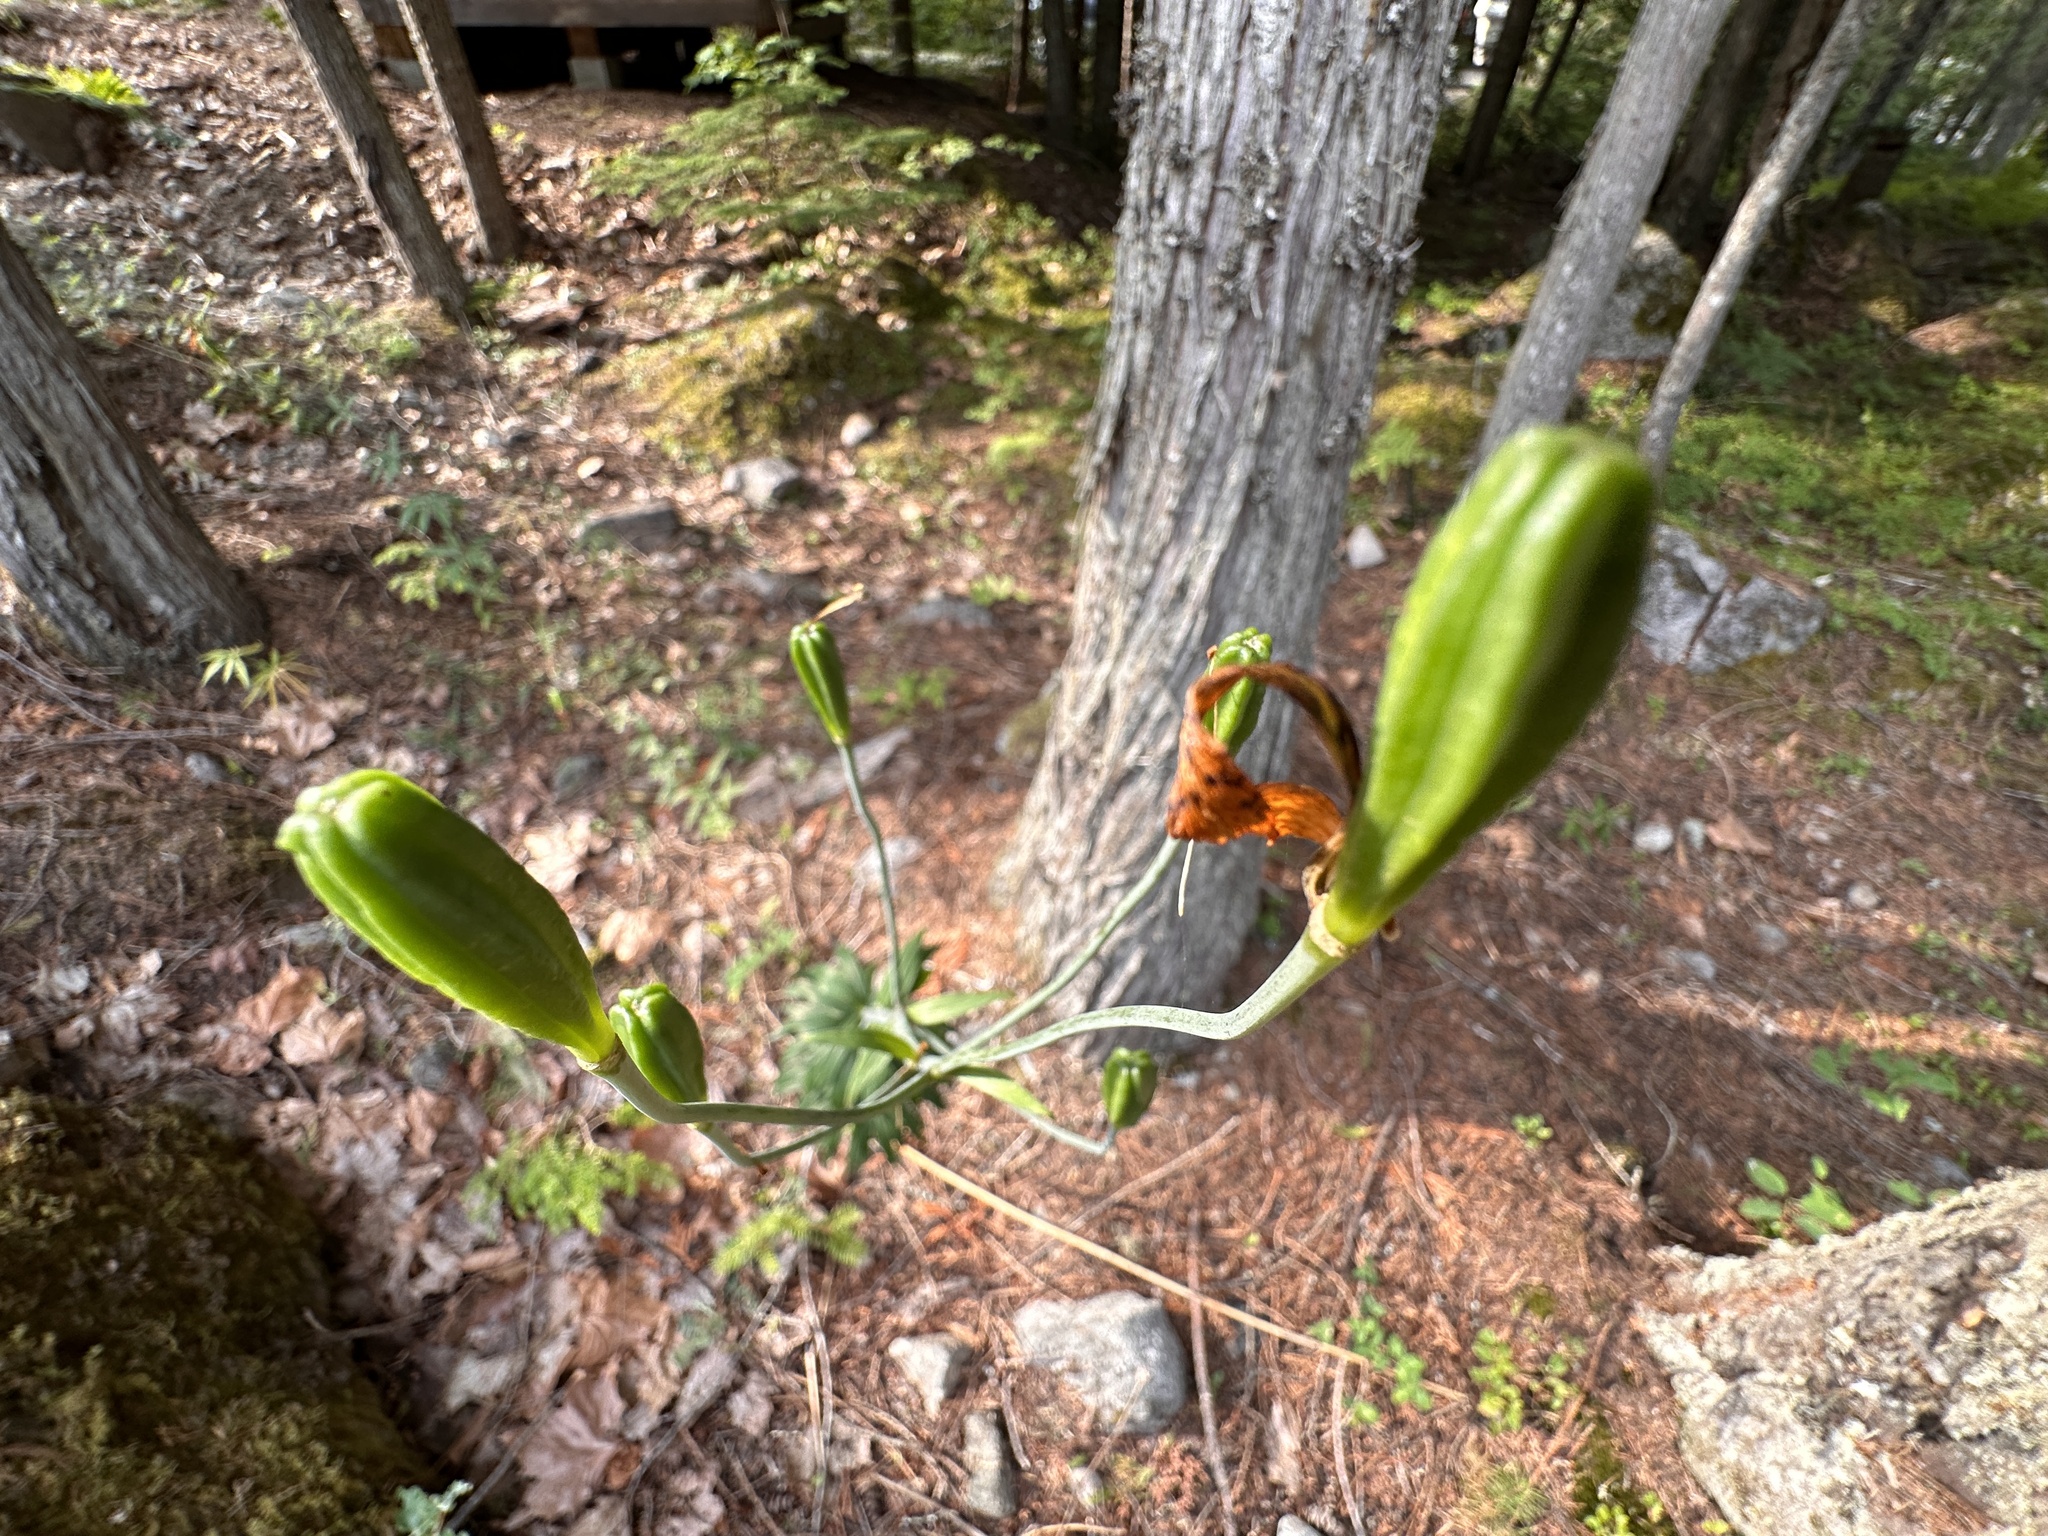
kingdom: Plantae
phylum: Tracheophyta
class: Liliopsida
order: Liliales
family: Liliaceae
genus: Lilium
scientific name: Lilium columbianum
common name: Columbia lily
